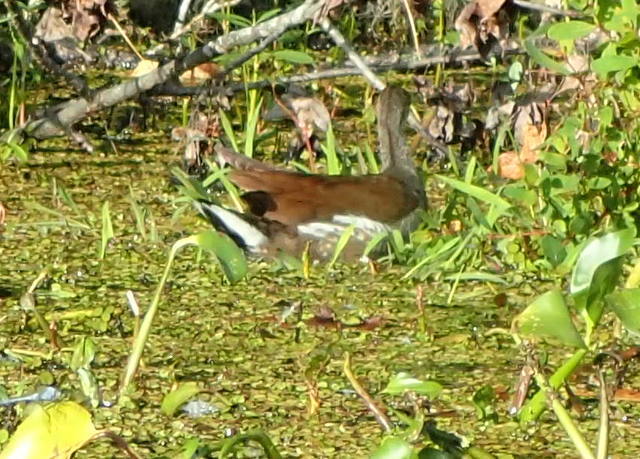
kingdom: Animalia
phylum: Chordata
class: Aves
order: Gruiformes
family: Rallidae
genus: Gallinula
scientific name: Gallinula chloropus
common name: Common moorhen
